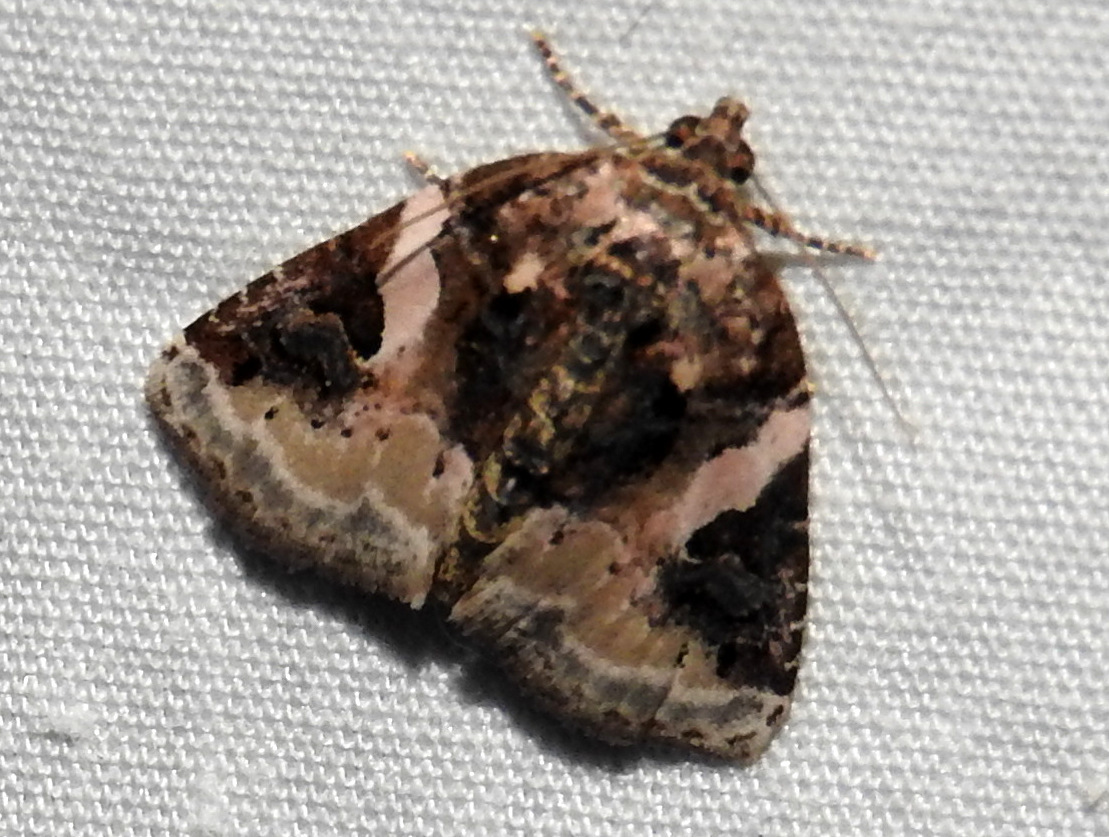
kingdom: Animalia
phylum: Arthropoda
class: Insecta
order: Lepidoptera
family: Noctuidae
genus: Pseudeustrotia
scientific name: Pseudeustrotia carneola
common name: Pink-barred lithacodia moth
